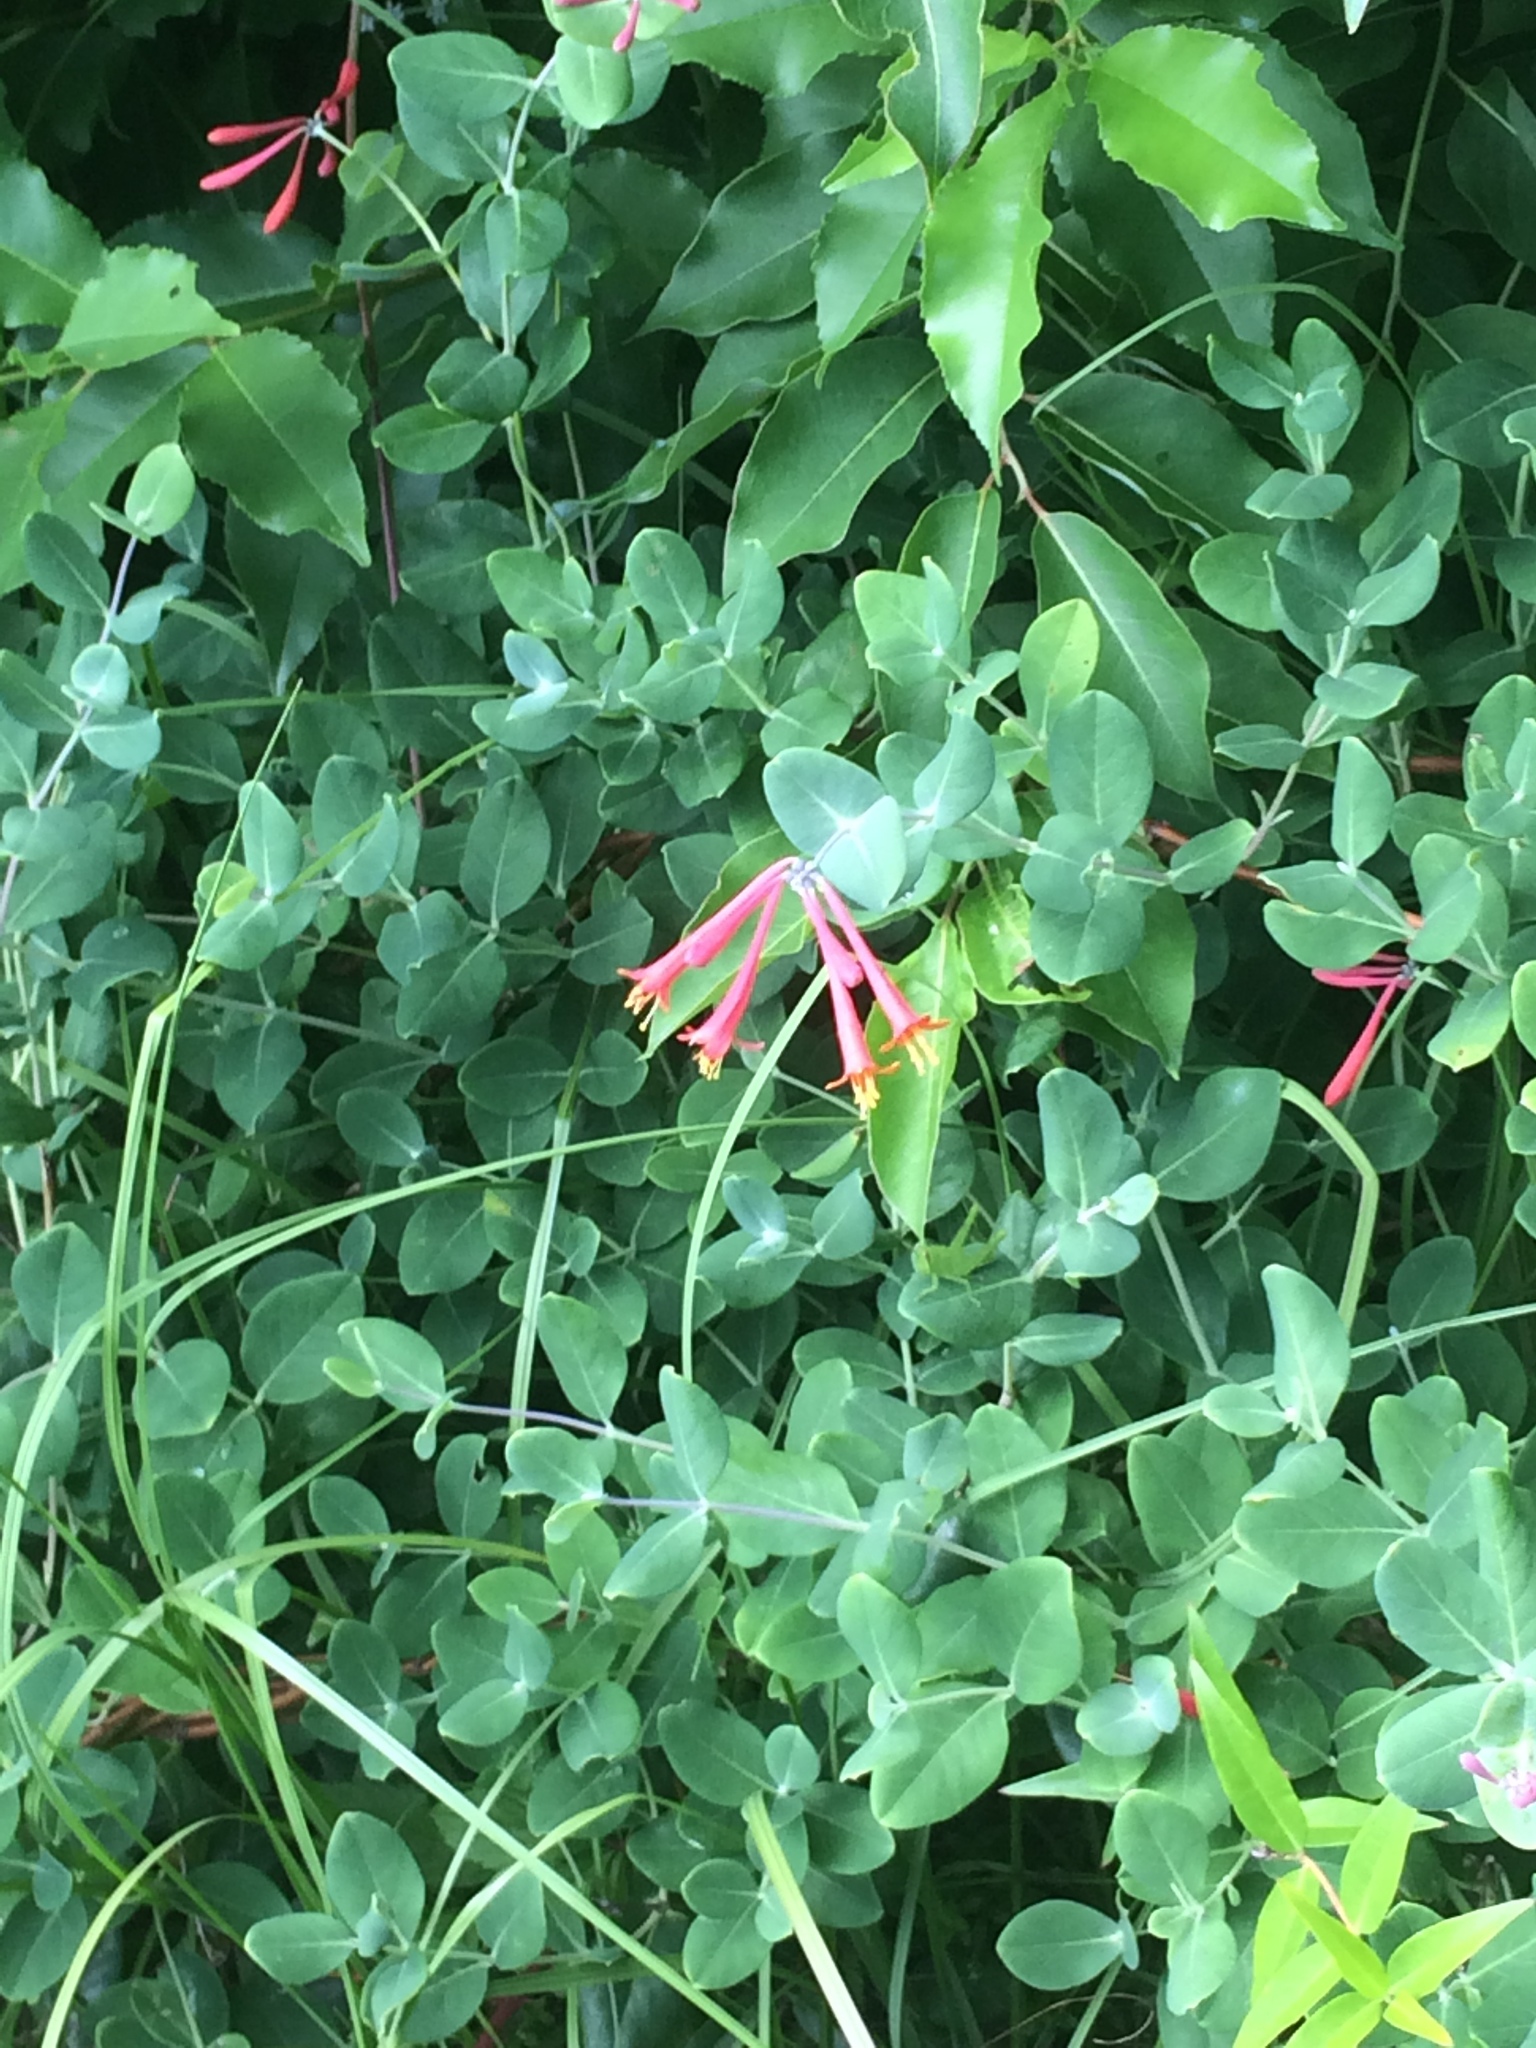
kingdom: Plantae
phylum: Tracheophyta
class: Magnoliopsida
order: Dipsacales
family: Caprifoliaceae
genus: Lonicera
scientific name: Lonicera sempervirens
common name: Coral honeysuckle
